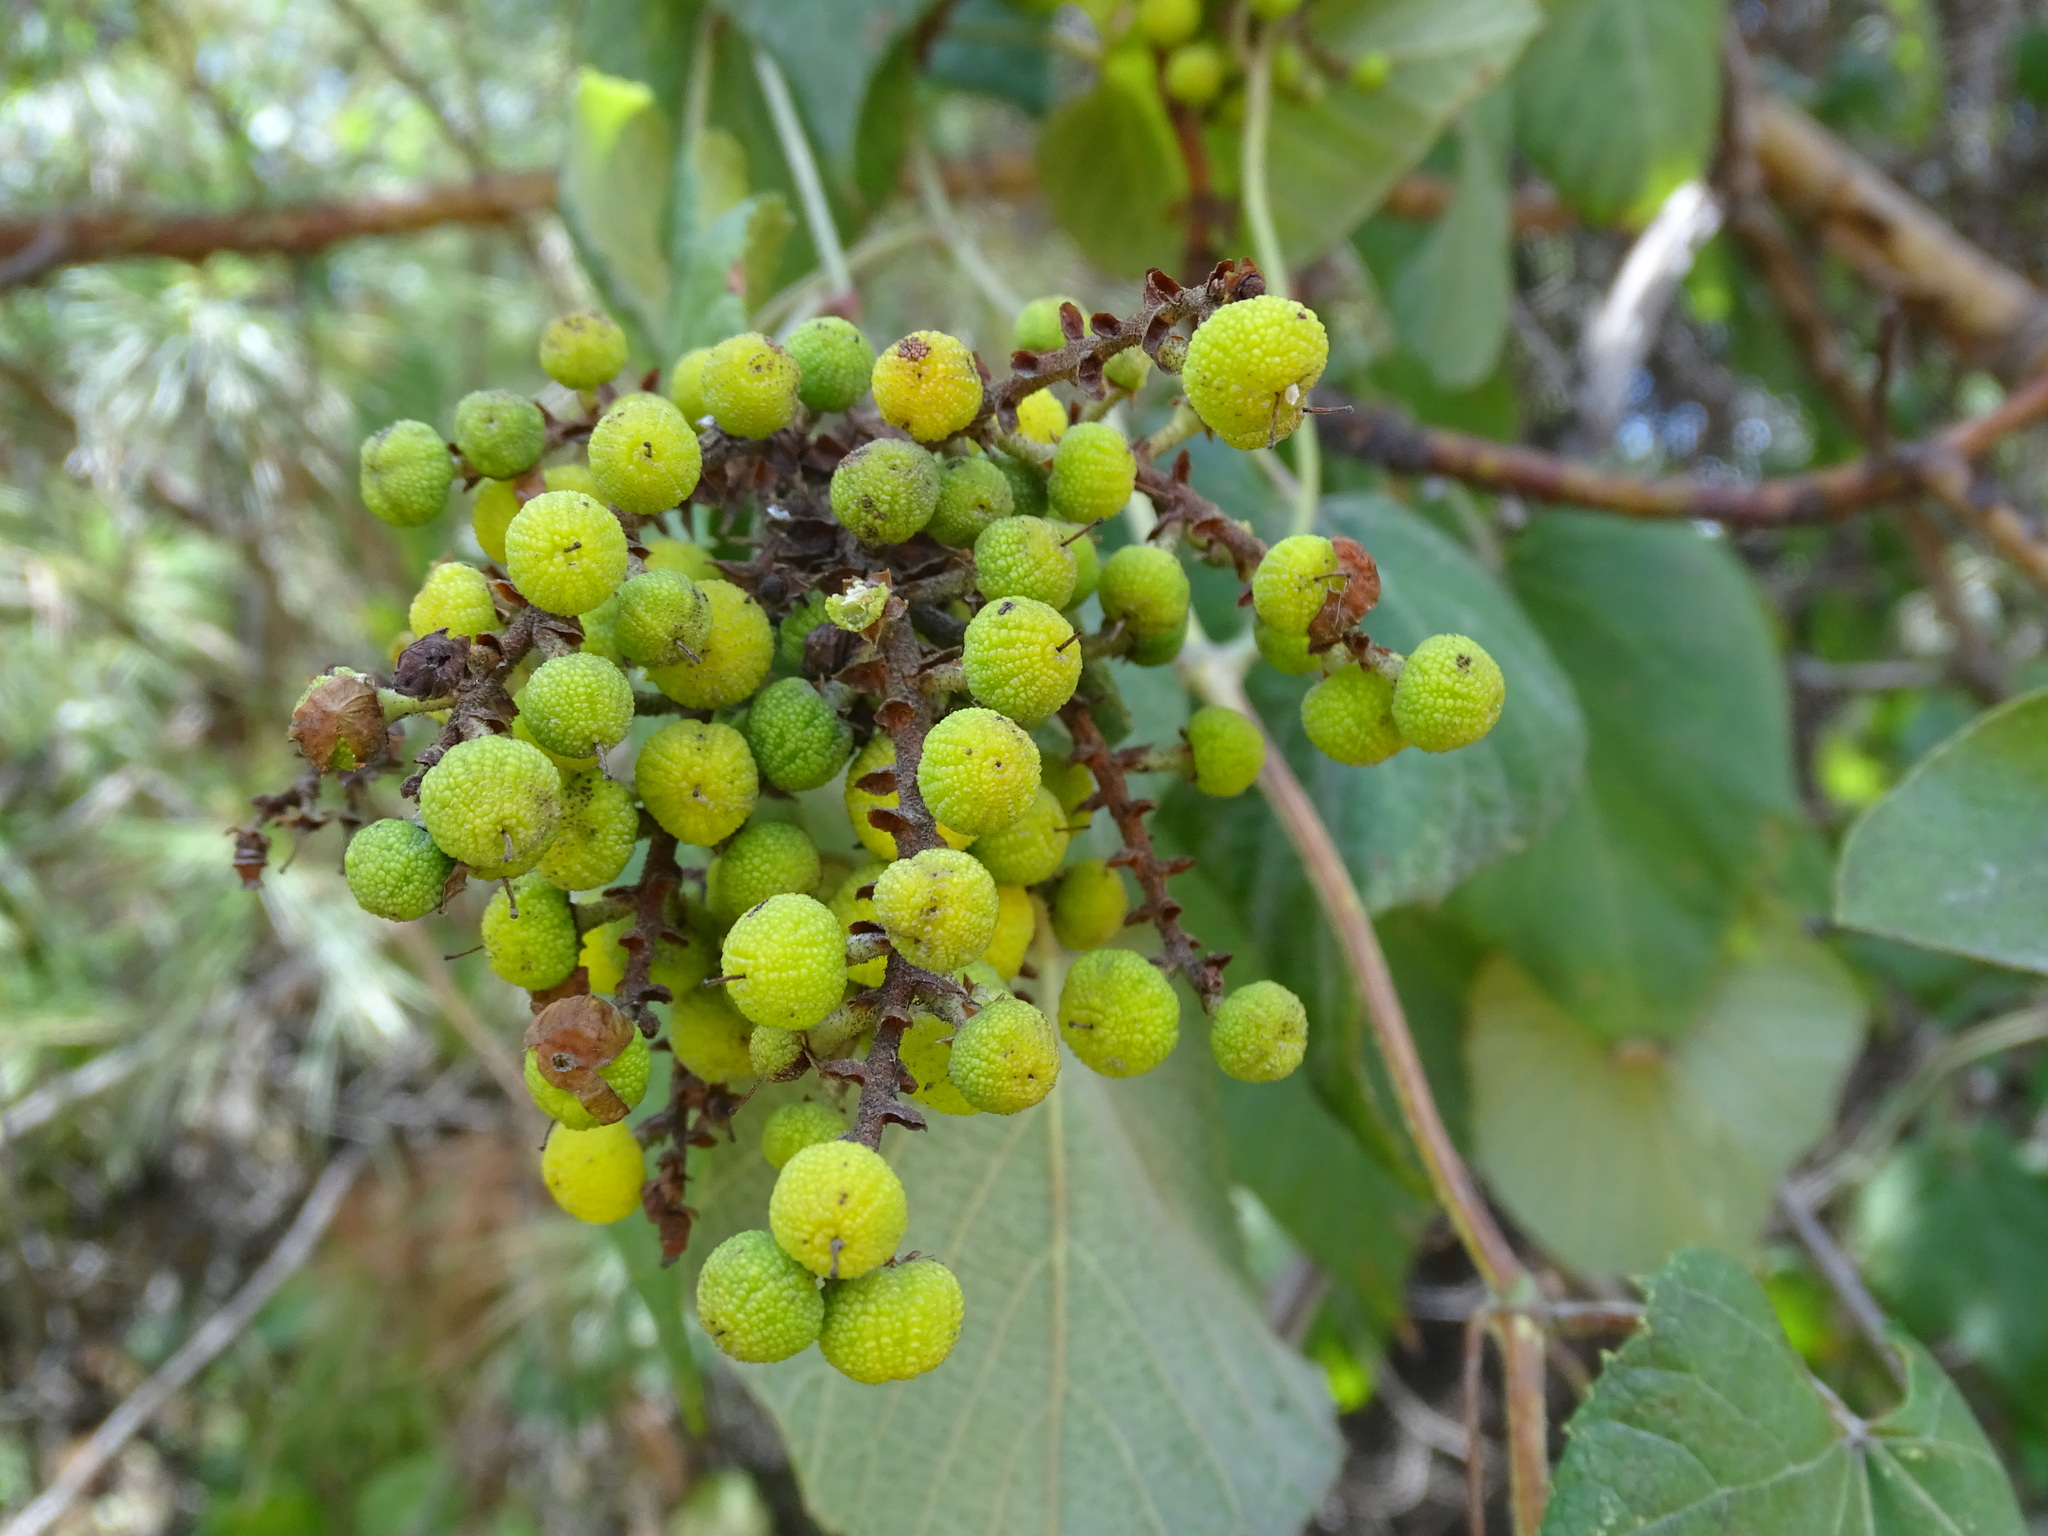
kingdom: Plantae
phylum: Tracheophyta
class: Magnoliopsida
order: Ericales
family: Ericaceae
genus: Arbutus
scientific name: Arbutus xalapensis
